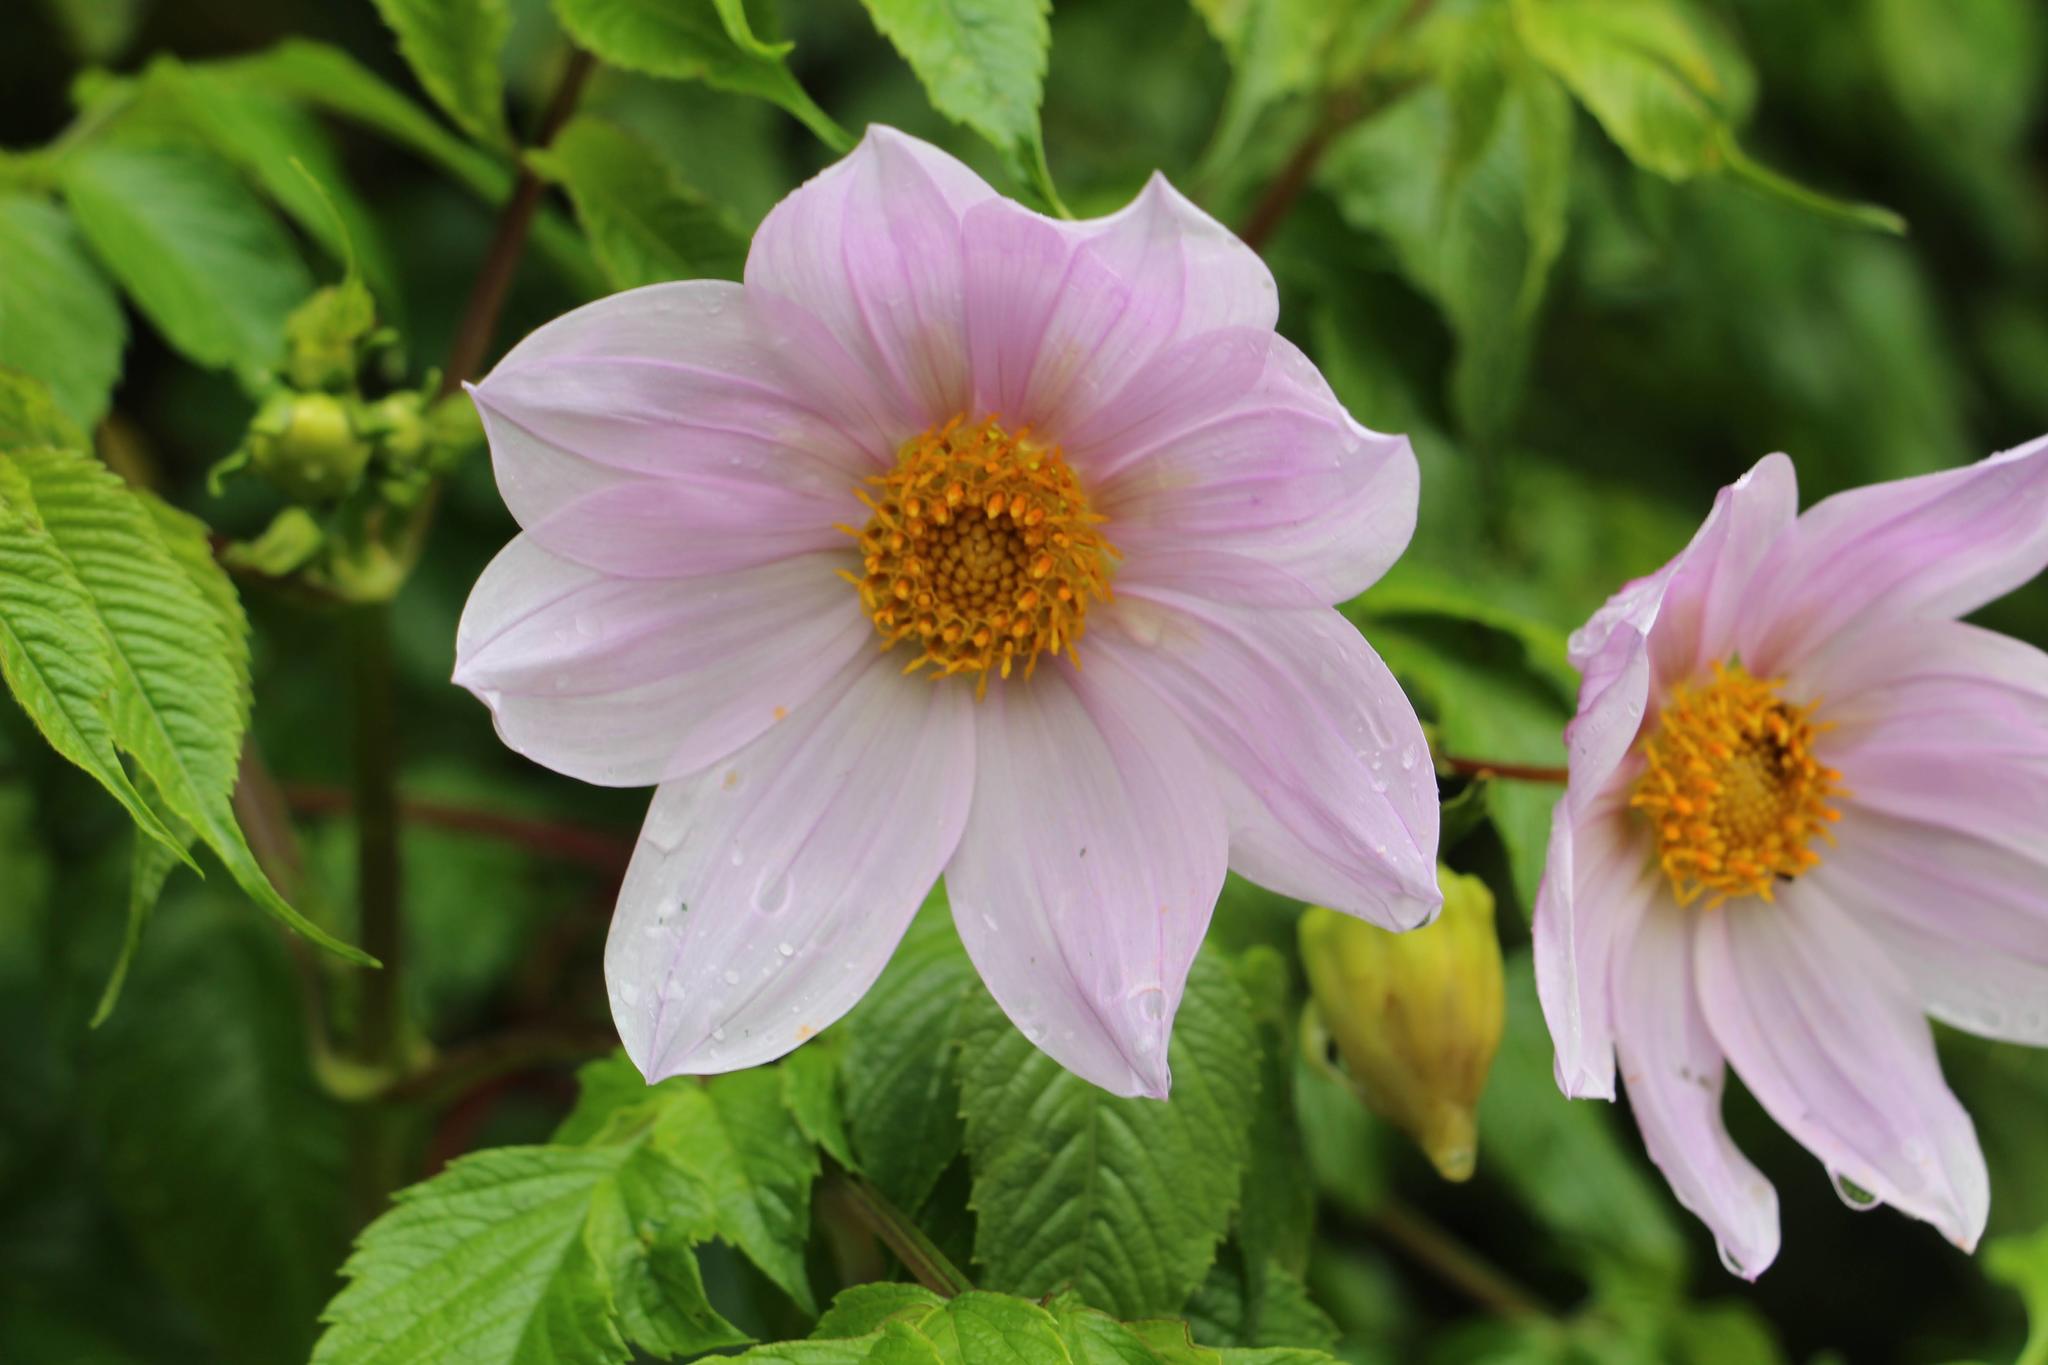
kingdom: Plantae
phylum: Tracheophyta
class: Magnoliopsida
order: Asterales
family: Asteraceae
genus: Dahlia
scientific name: Dahlia imperialis
